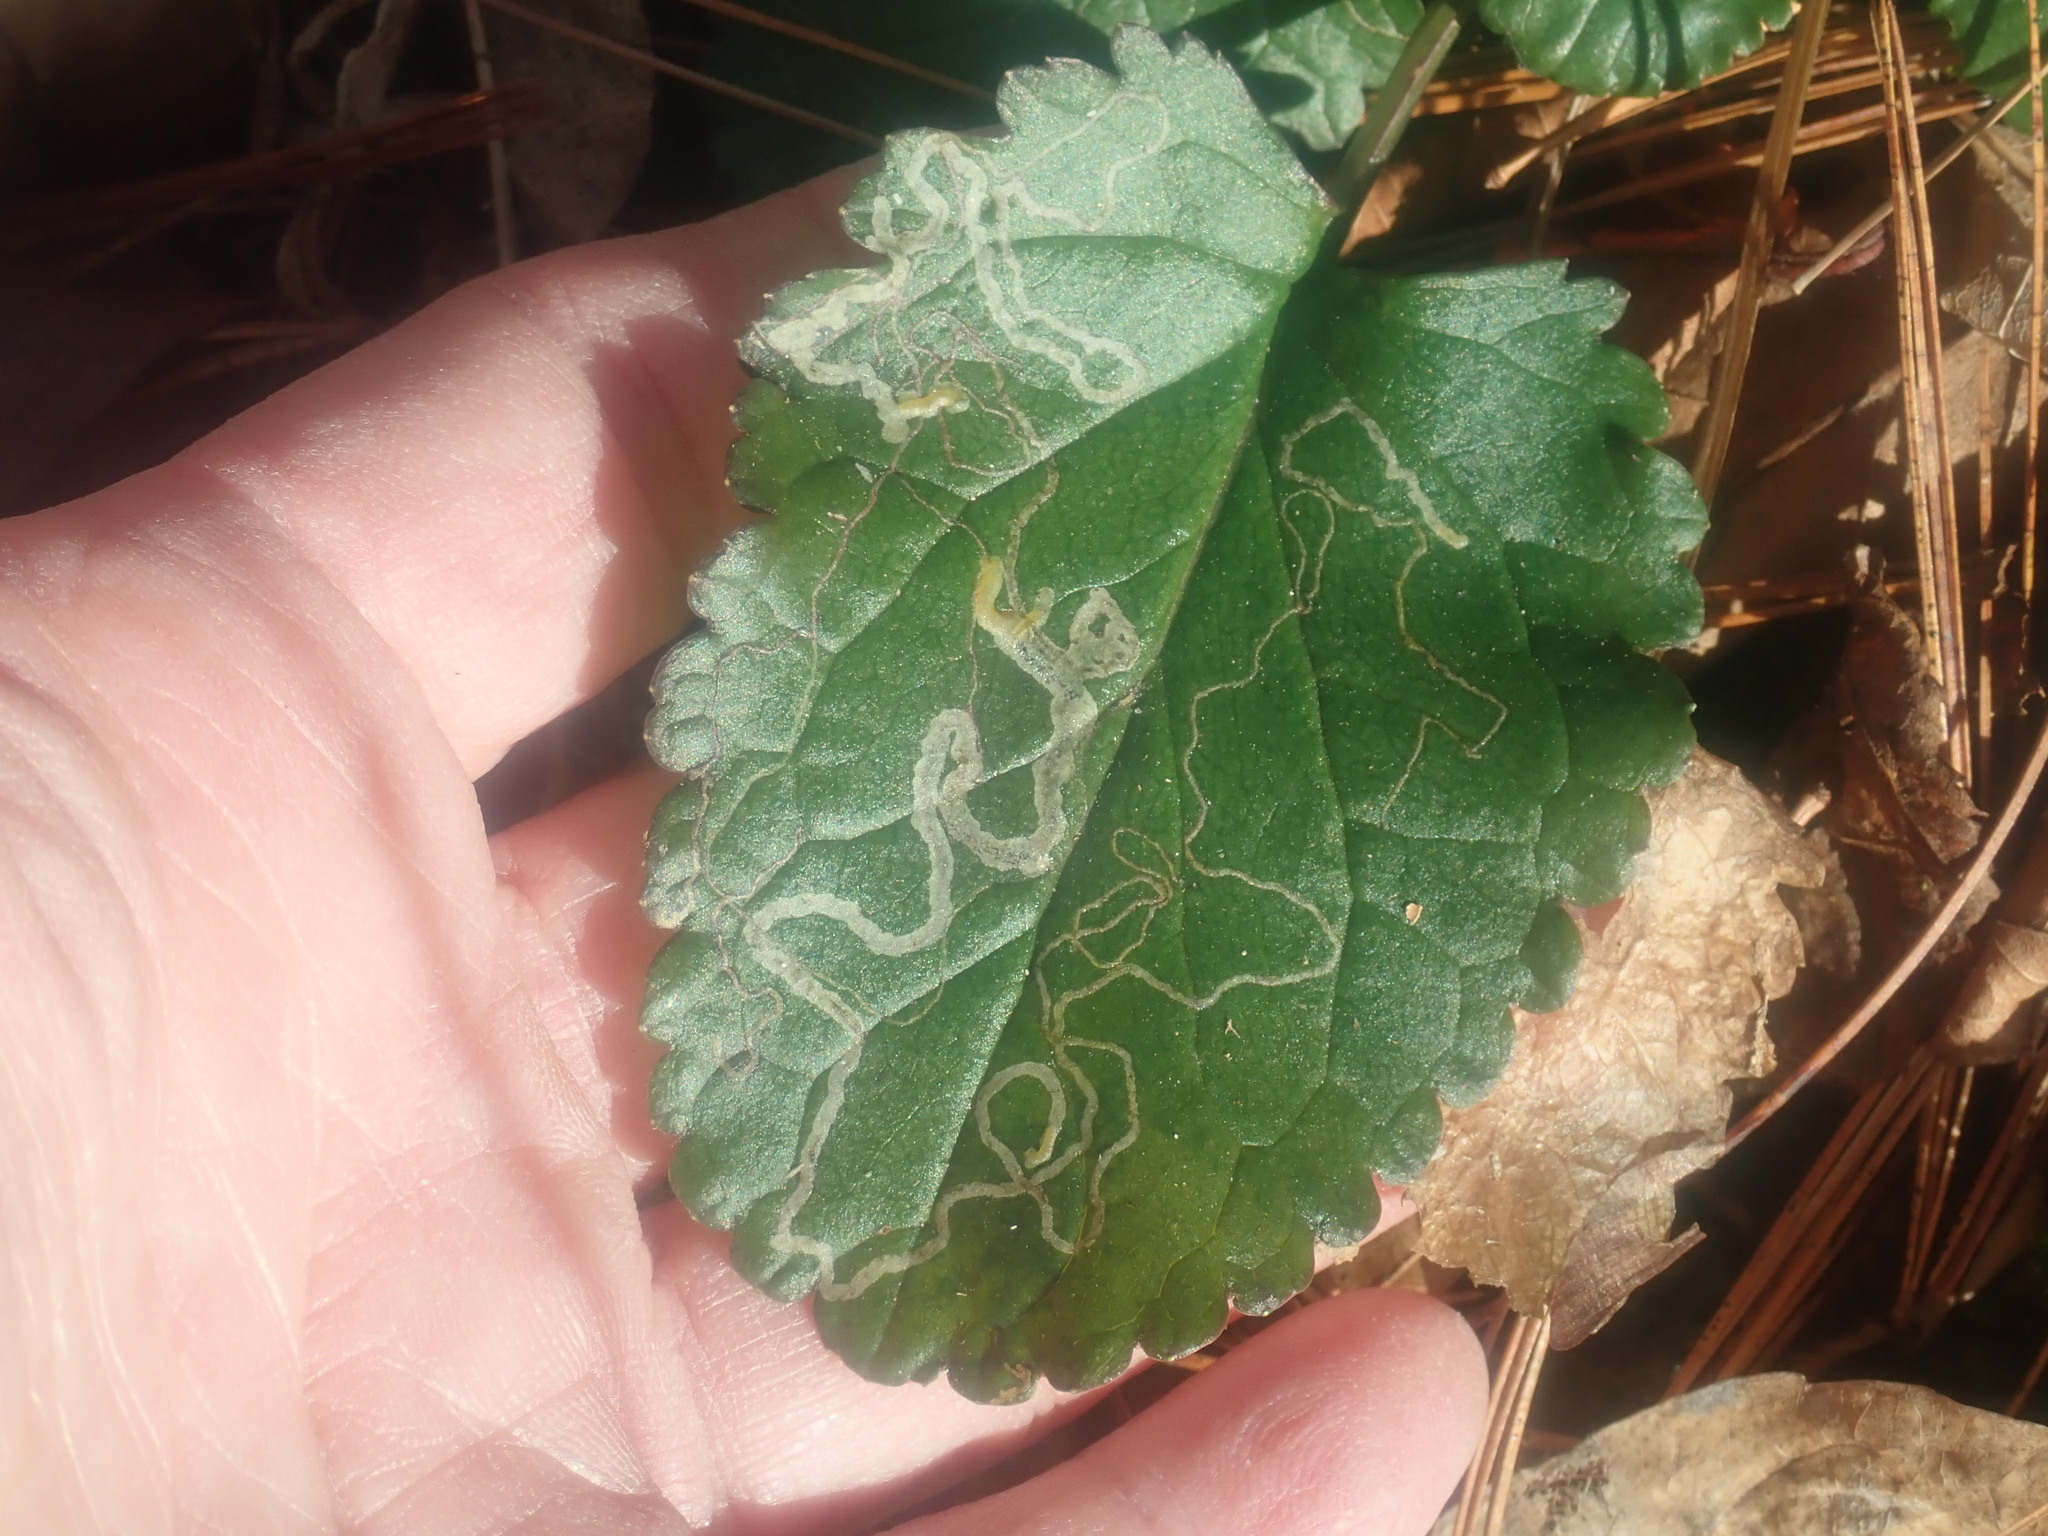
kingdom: Animalia
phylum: Arthropoda
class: Insecta
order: Lepidoptera
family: Gracillariidae
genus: Phyllocnistis
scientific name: Phyllocnistis insignis
